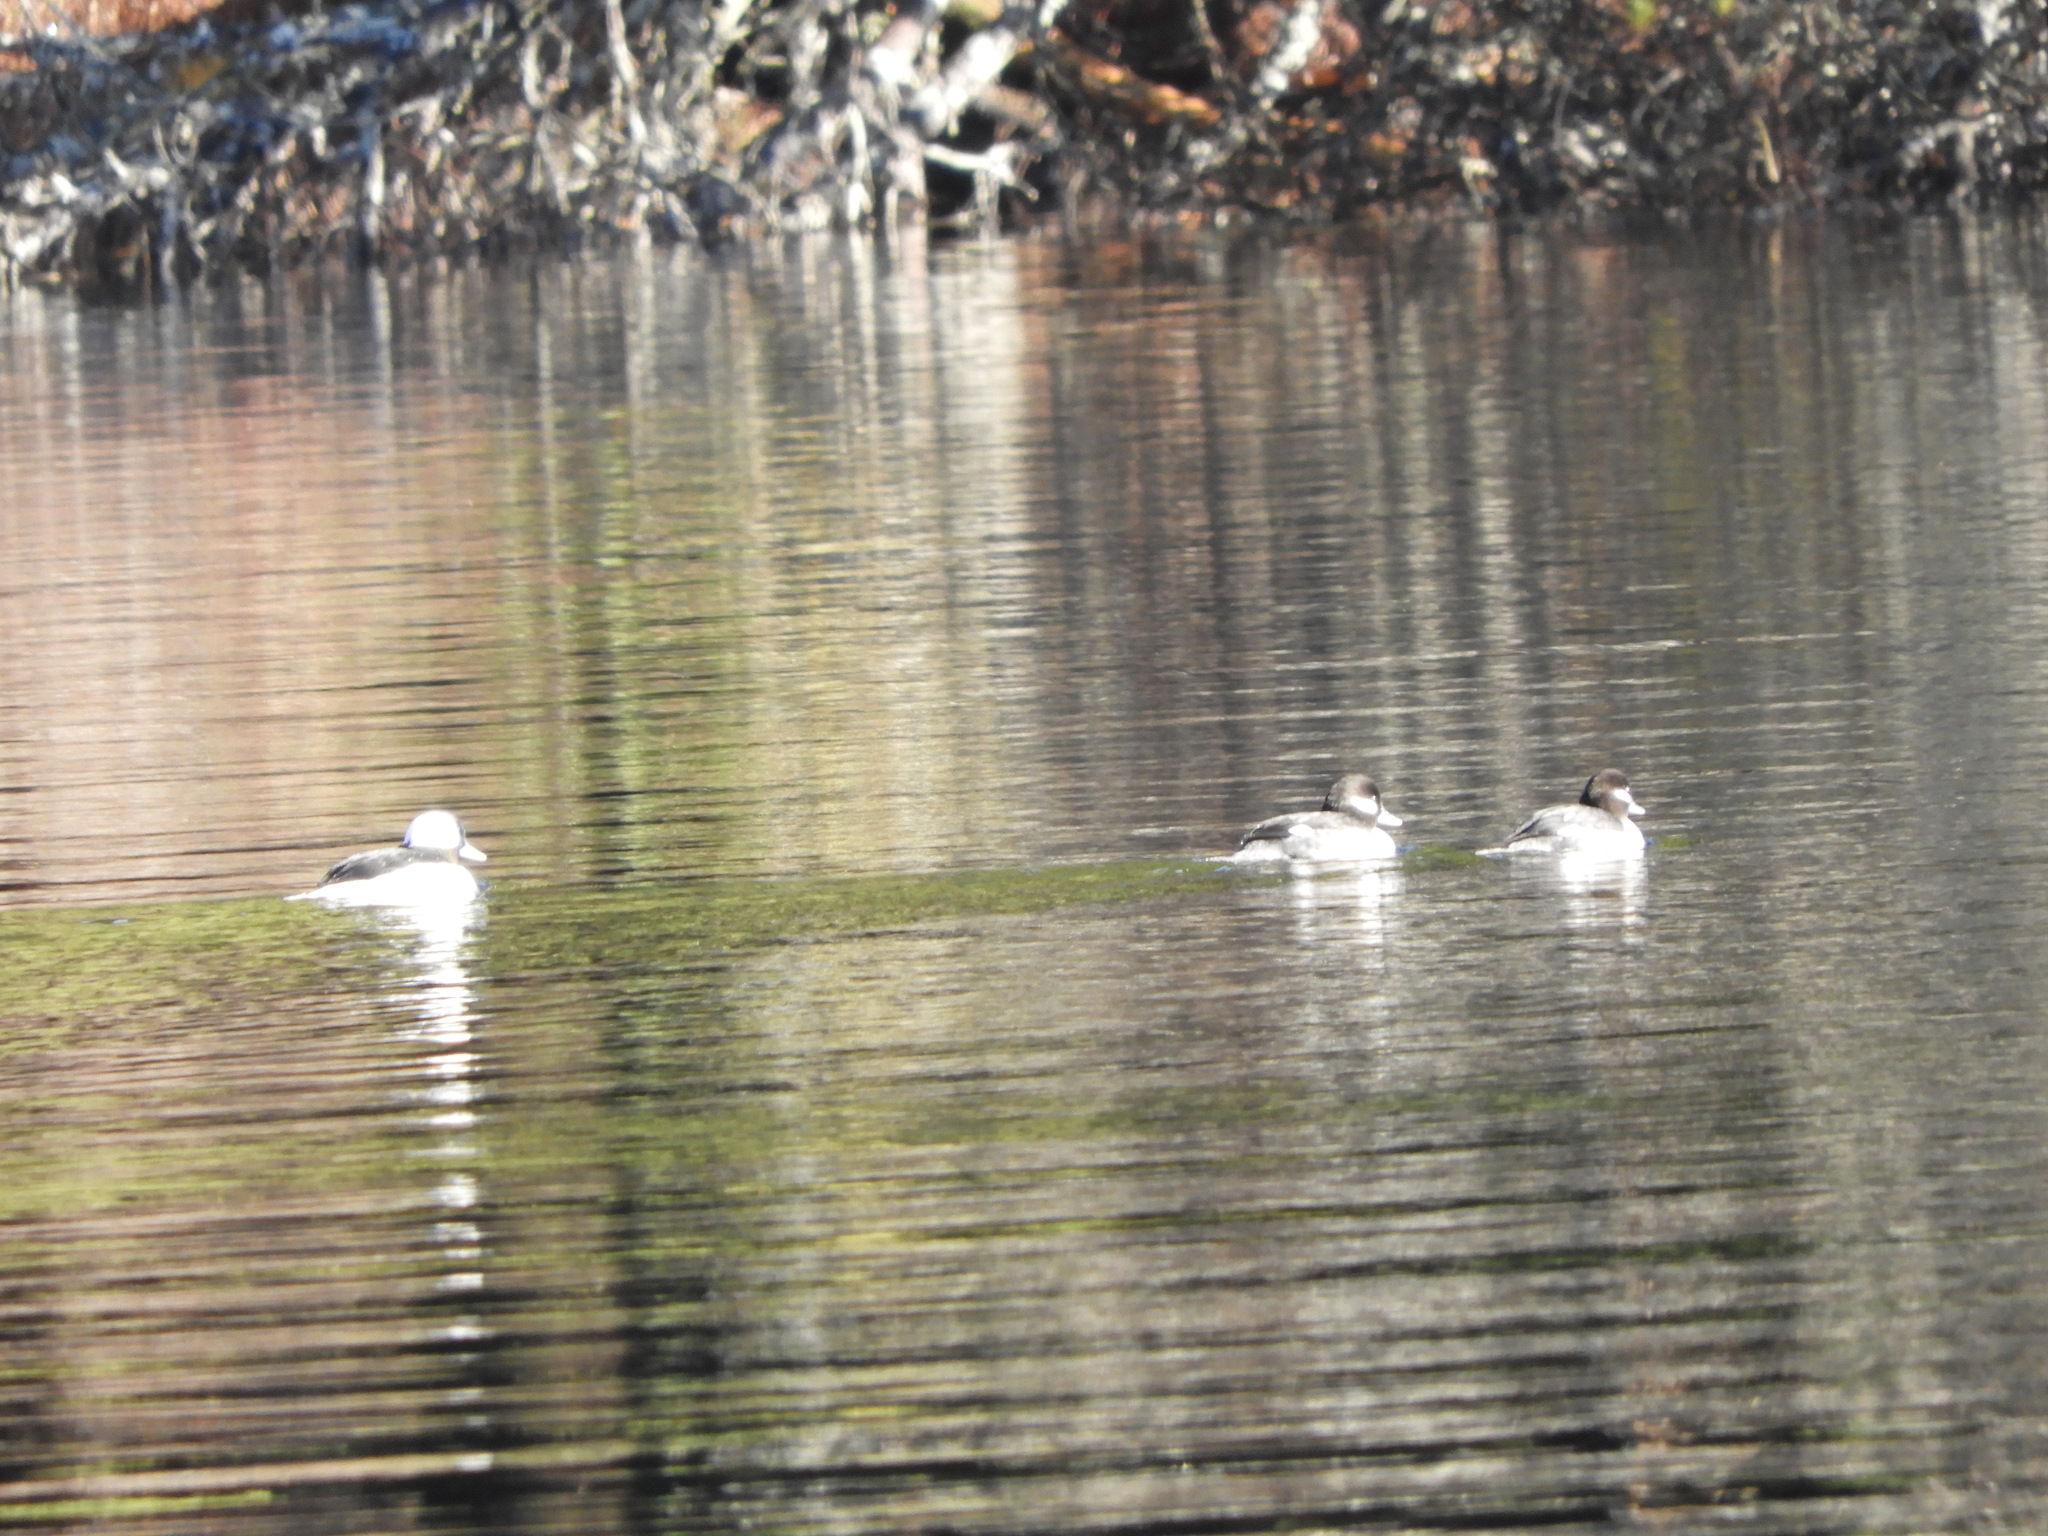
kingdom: Animalia
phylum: Chordata
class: Aves
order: Anseriformes
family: Anatidae
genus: Bucephala
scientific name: Bucephala albeola
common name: Bufflehead
